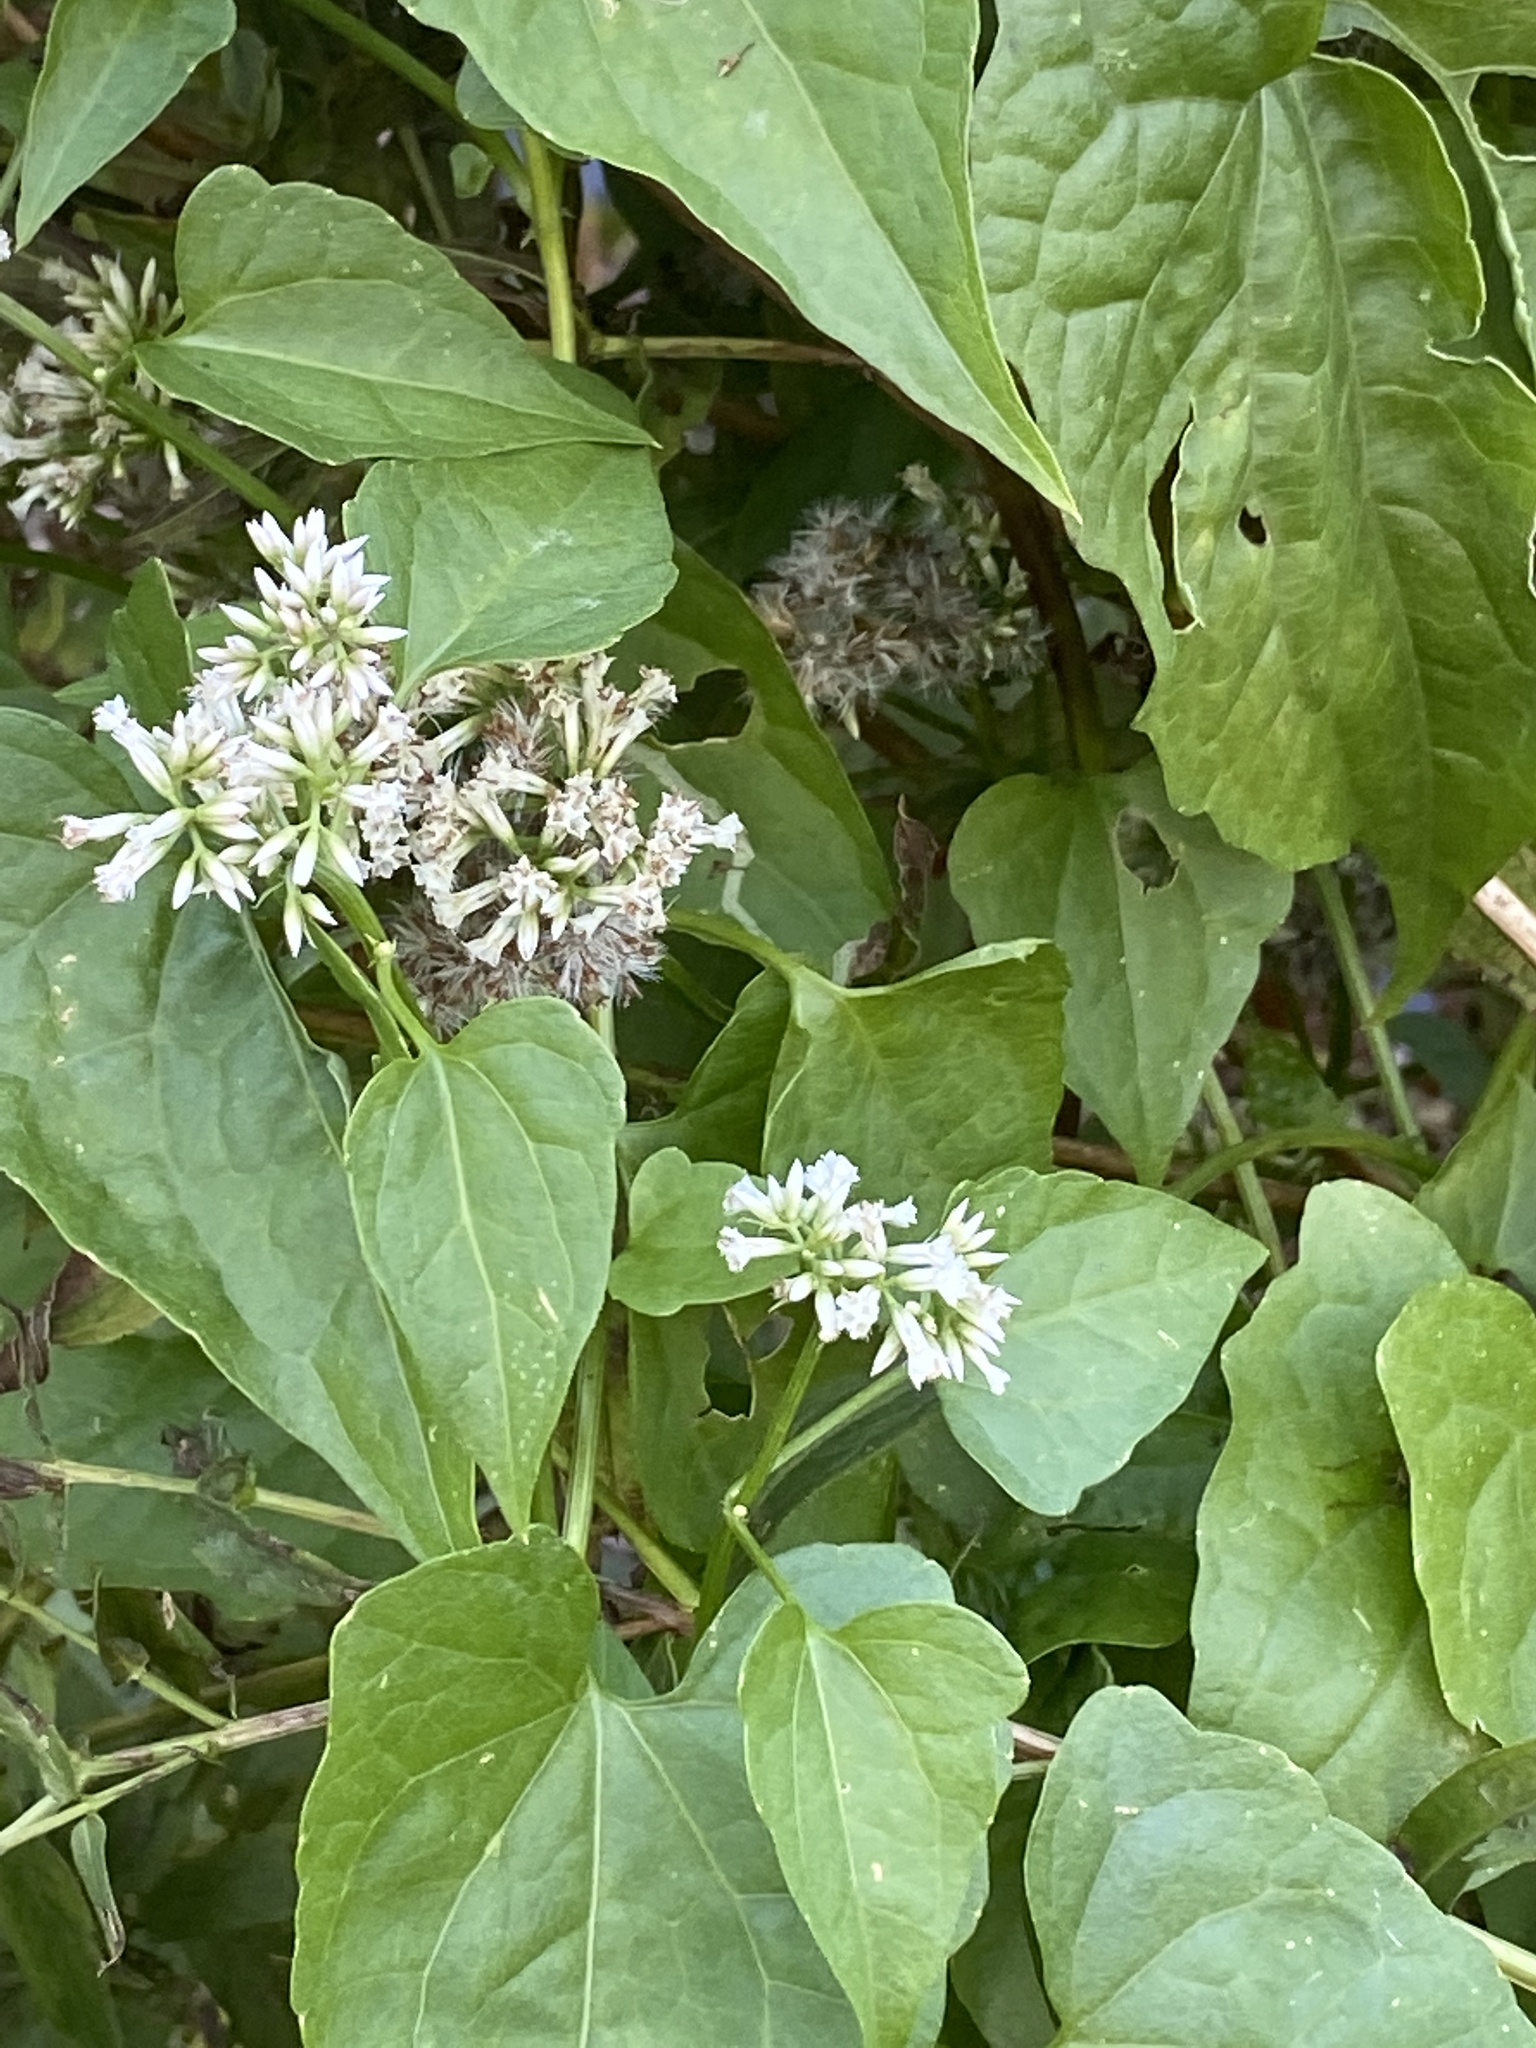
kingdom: Plantae
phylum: Tracheophyta
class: Magnoliopsida
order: Asterales
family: Asteraceae
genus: Mikania
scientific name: Mikania scandens
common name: Climbing hempvine
